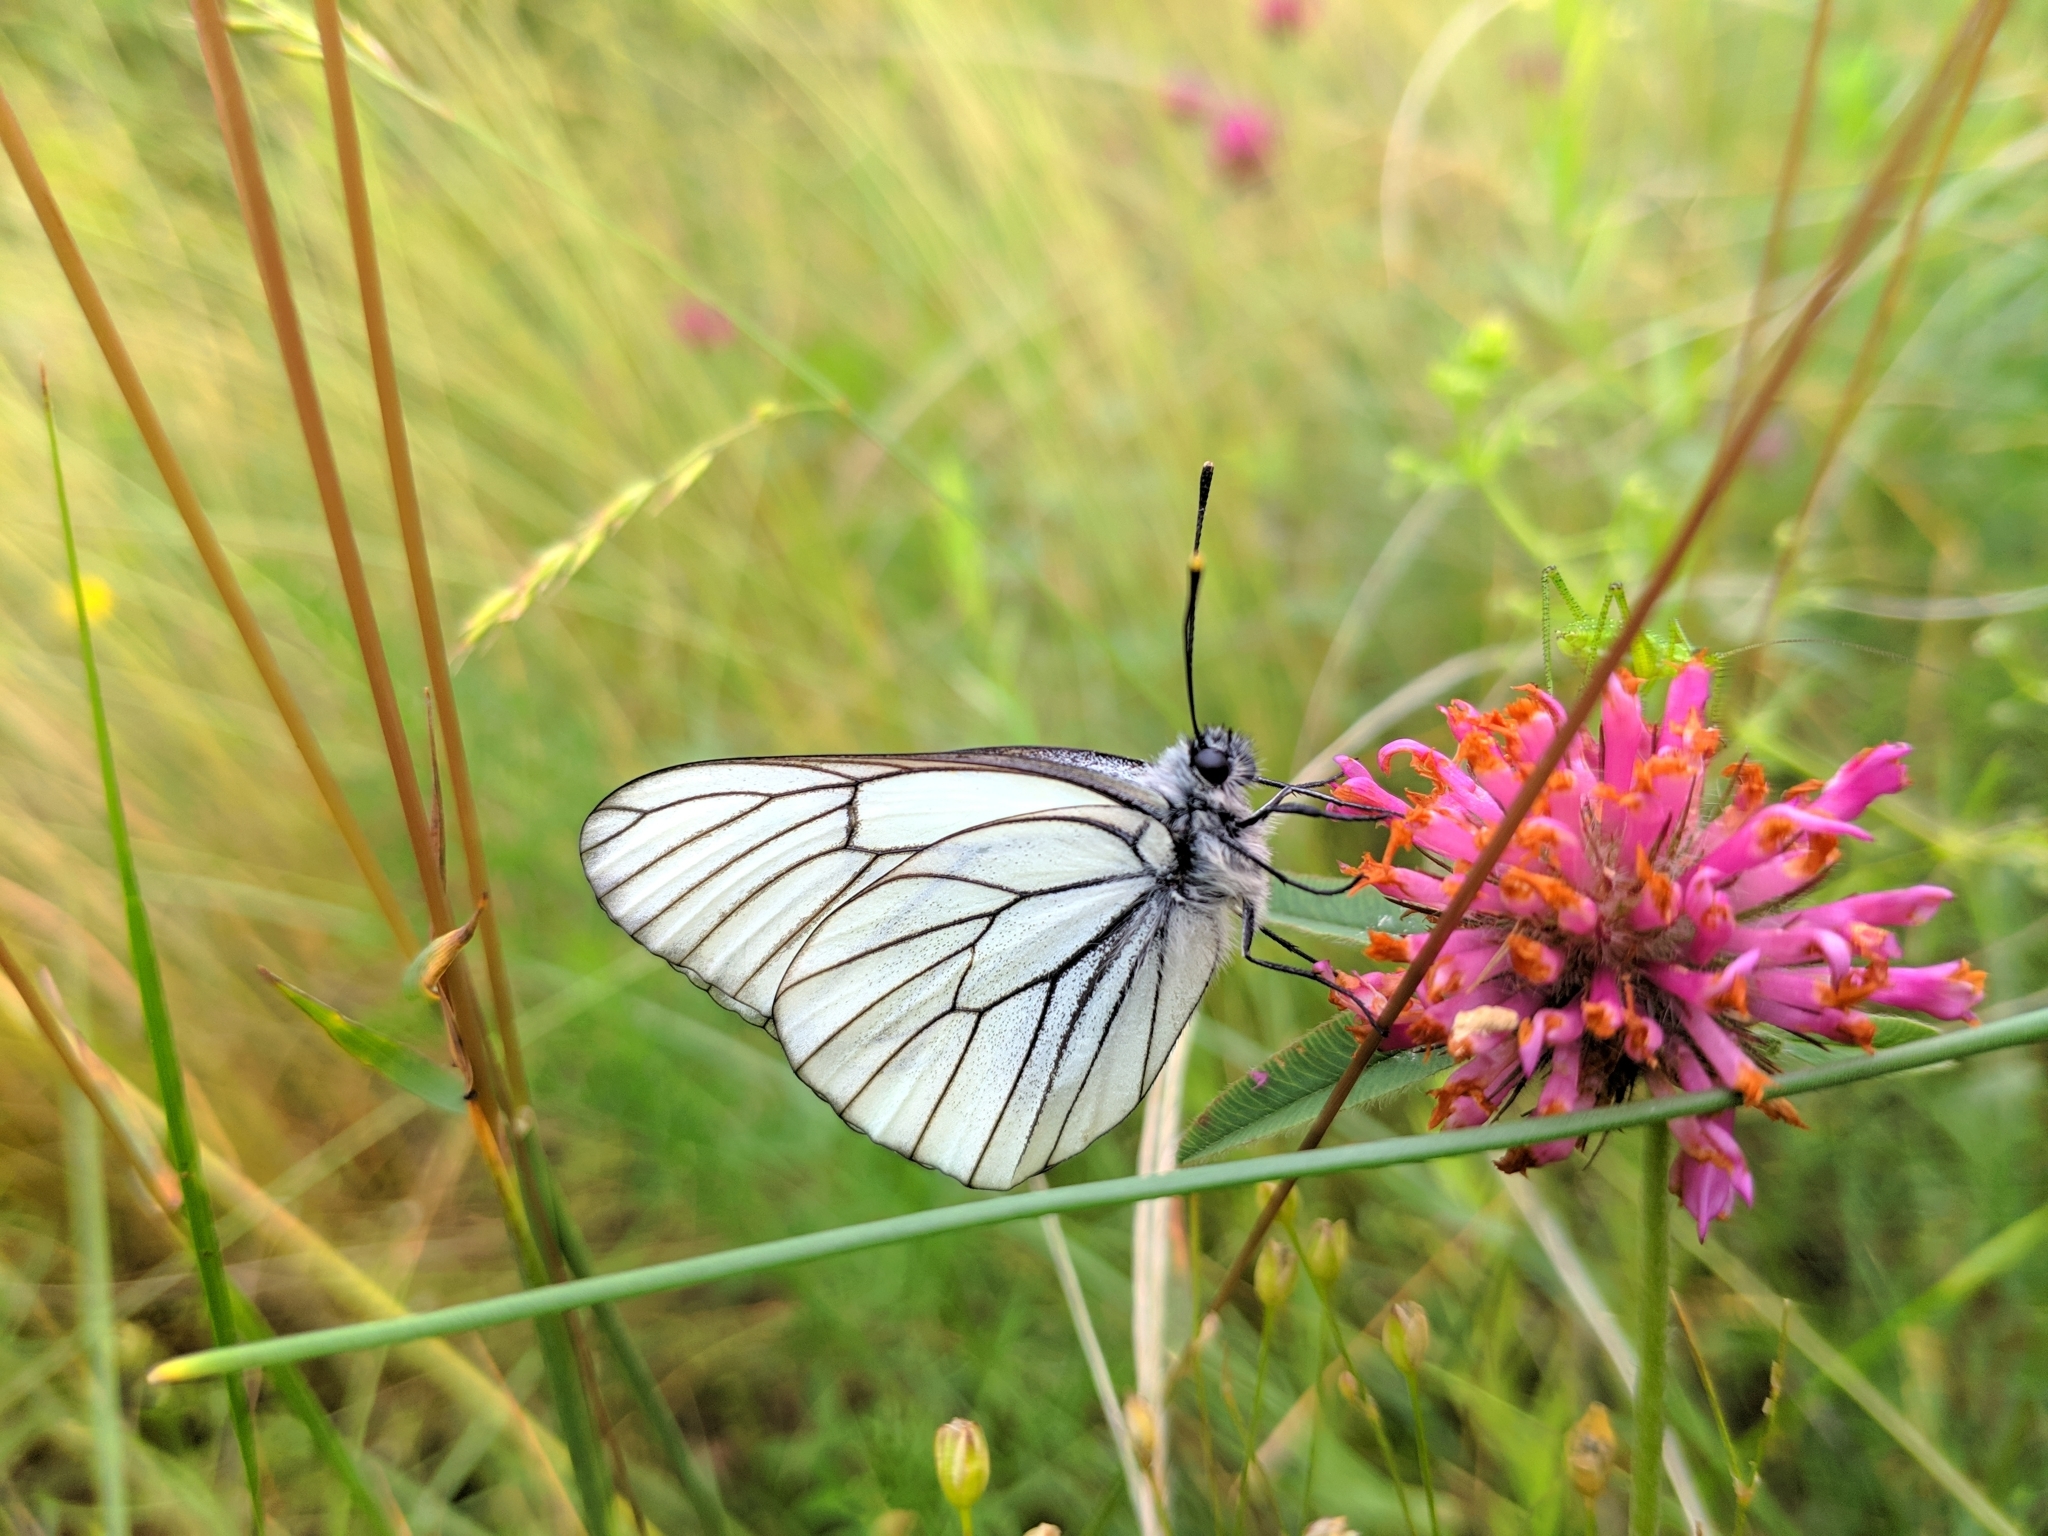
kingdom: Animalia
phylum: Arthropoda
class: Insecta
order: Lepidoptera
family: Pieridae
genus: Aporia
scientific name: Aporia crataegi
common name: Black-veined white
